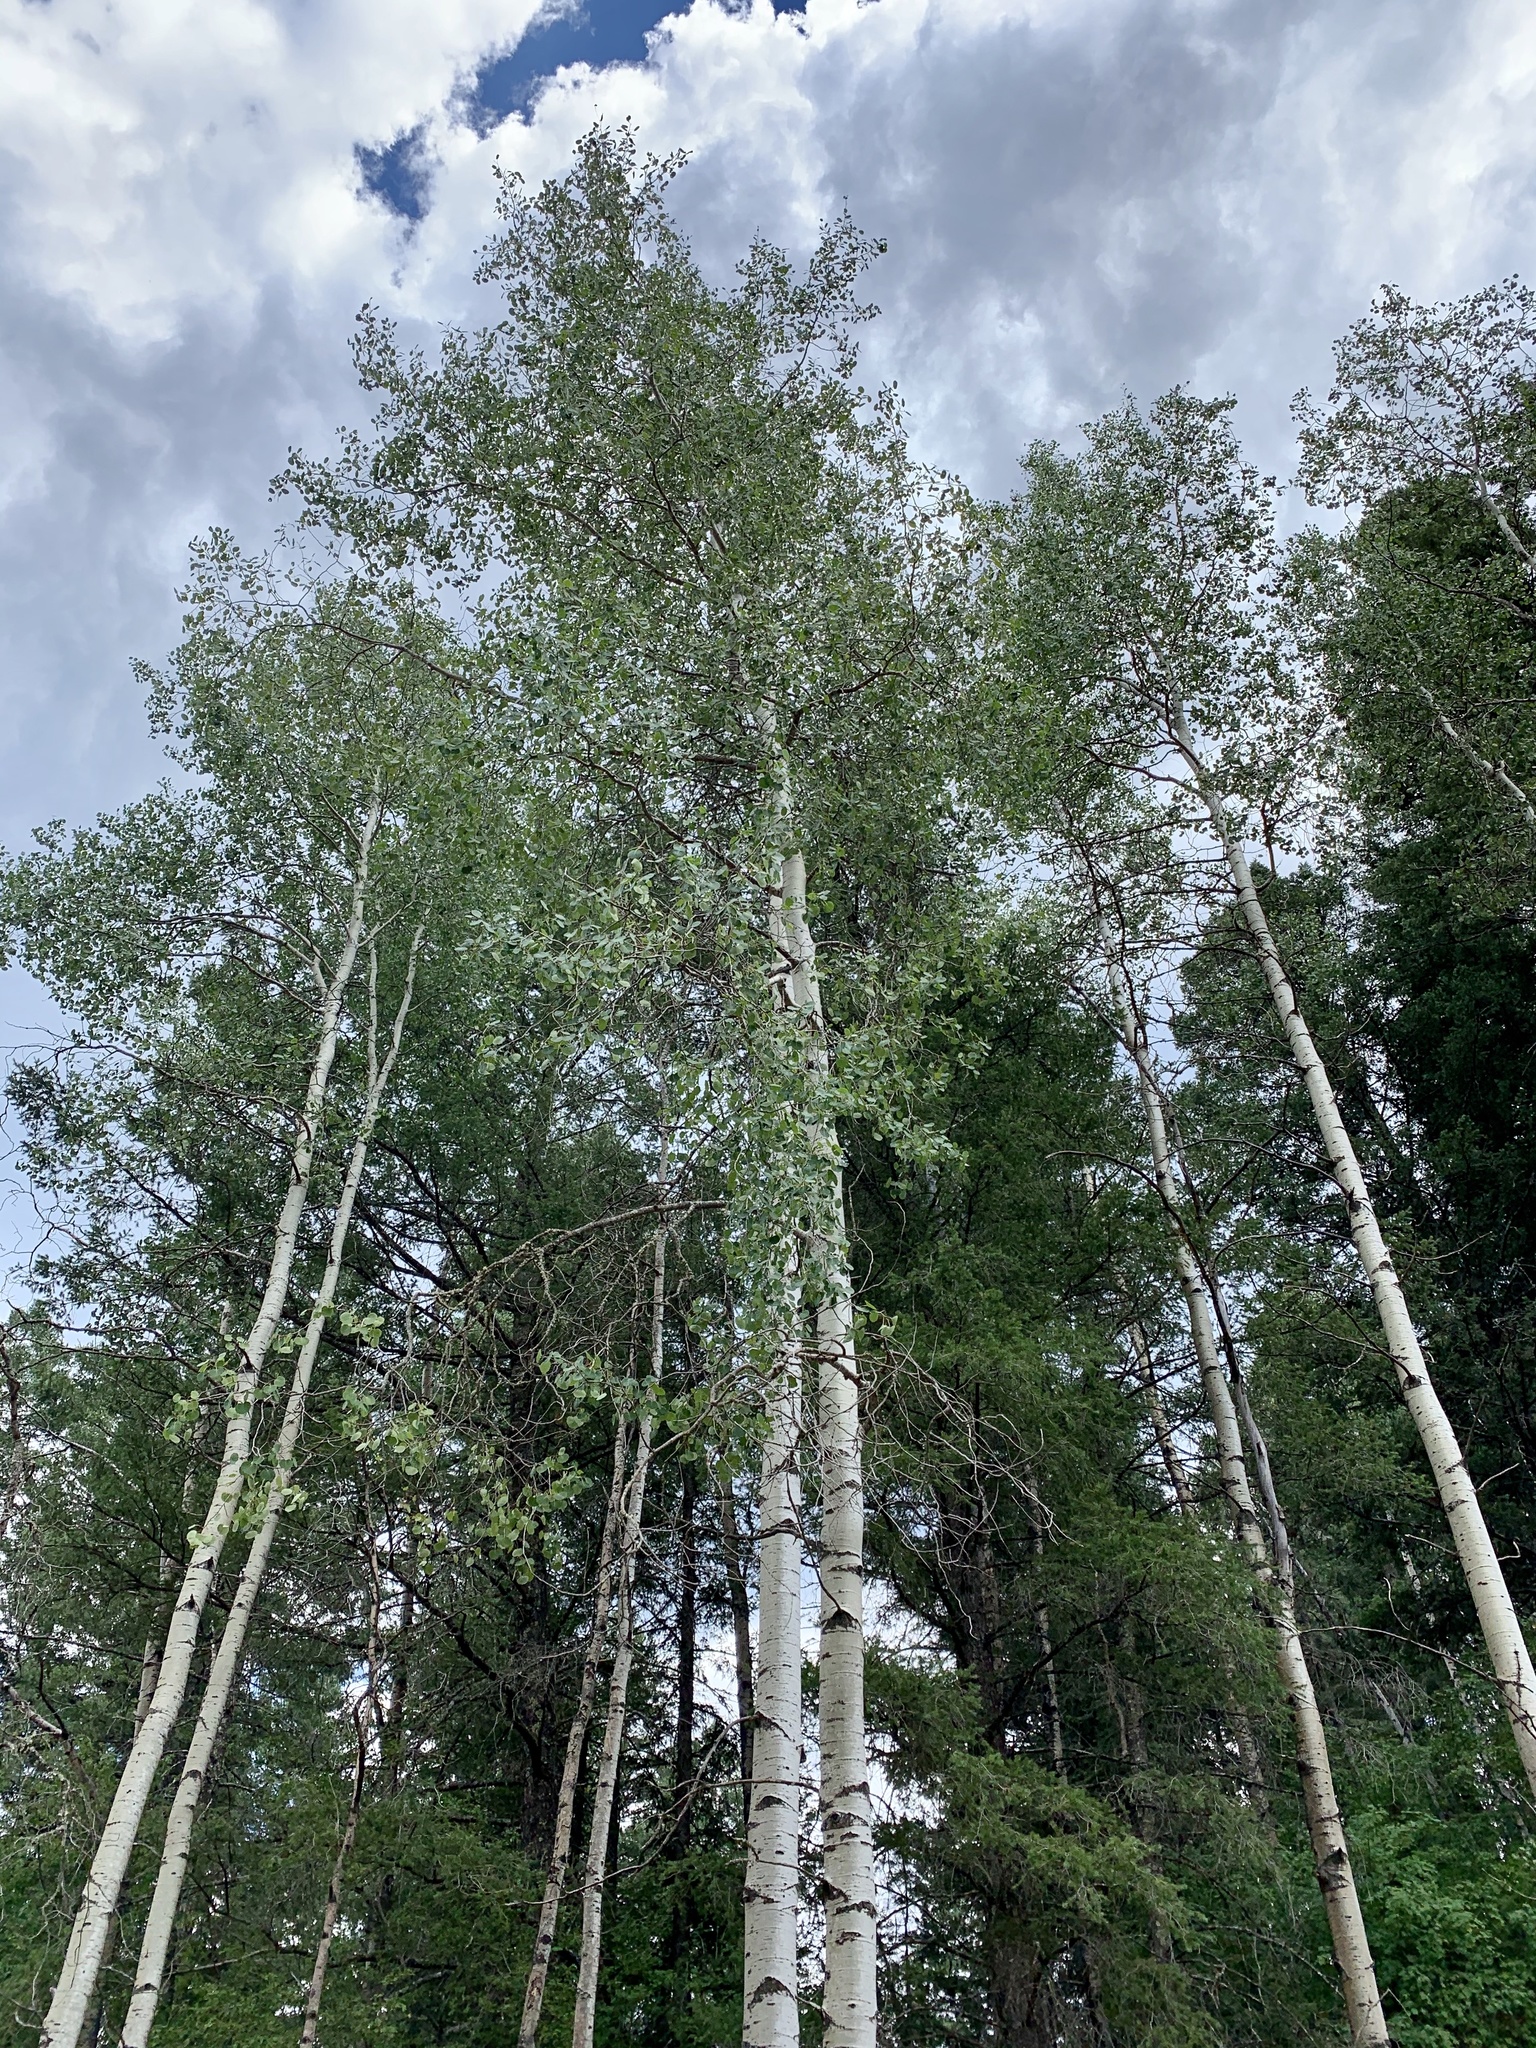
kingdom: Plantae
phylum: Tracheophyta
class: Magnoliopsida
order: Malpighiales
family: Salicaceae
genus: Populus
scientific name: Populus tremuloides
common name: Quaking aspen
